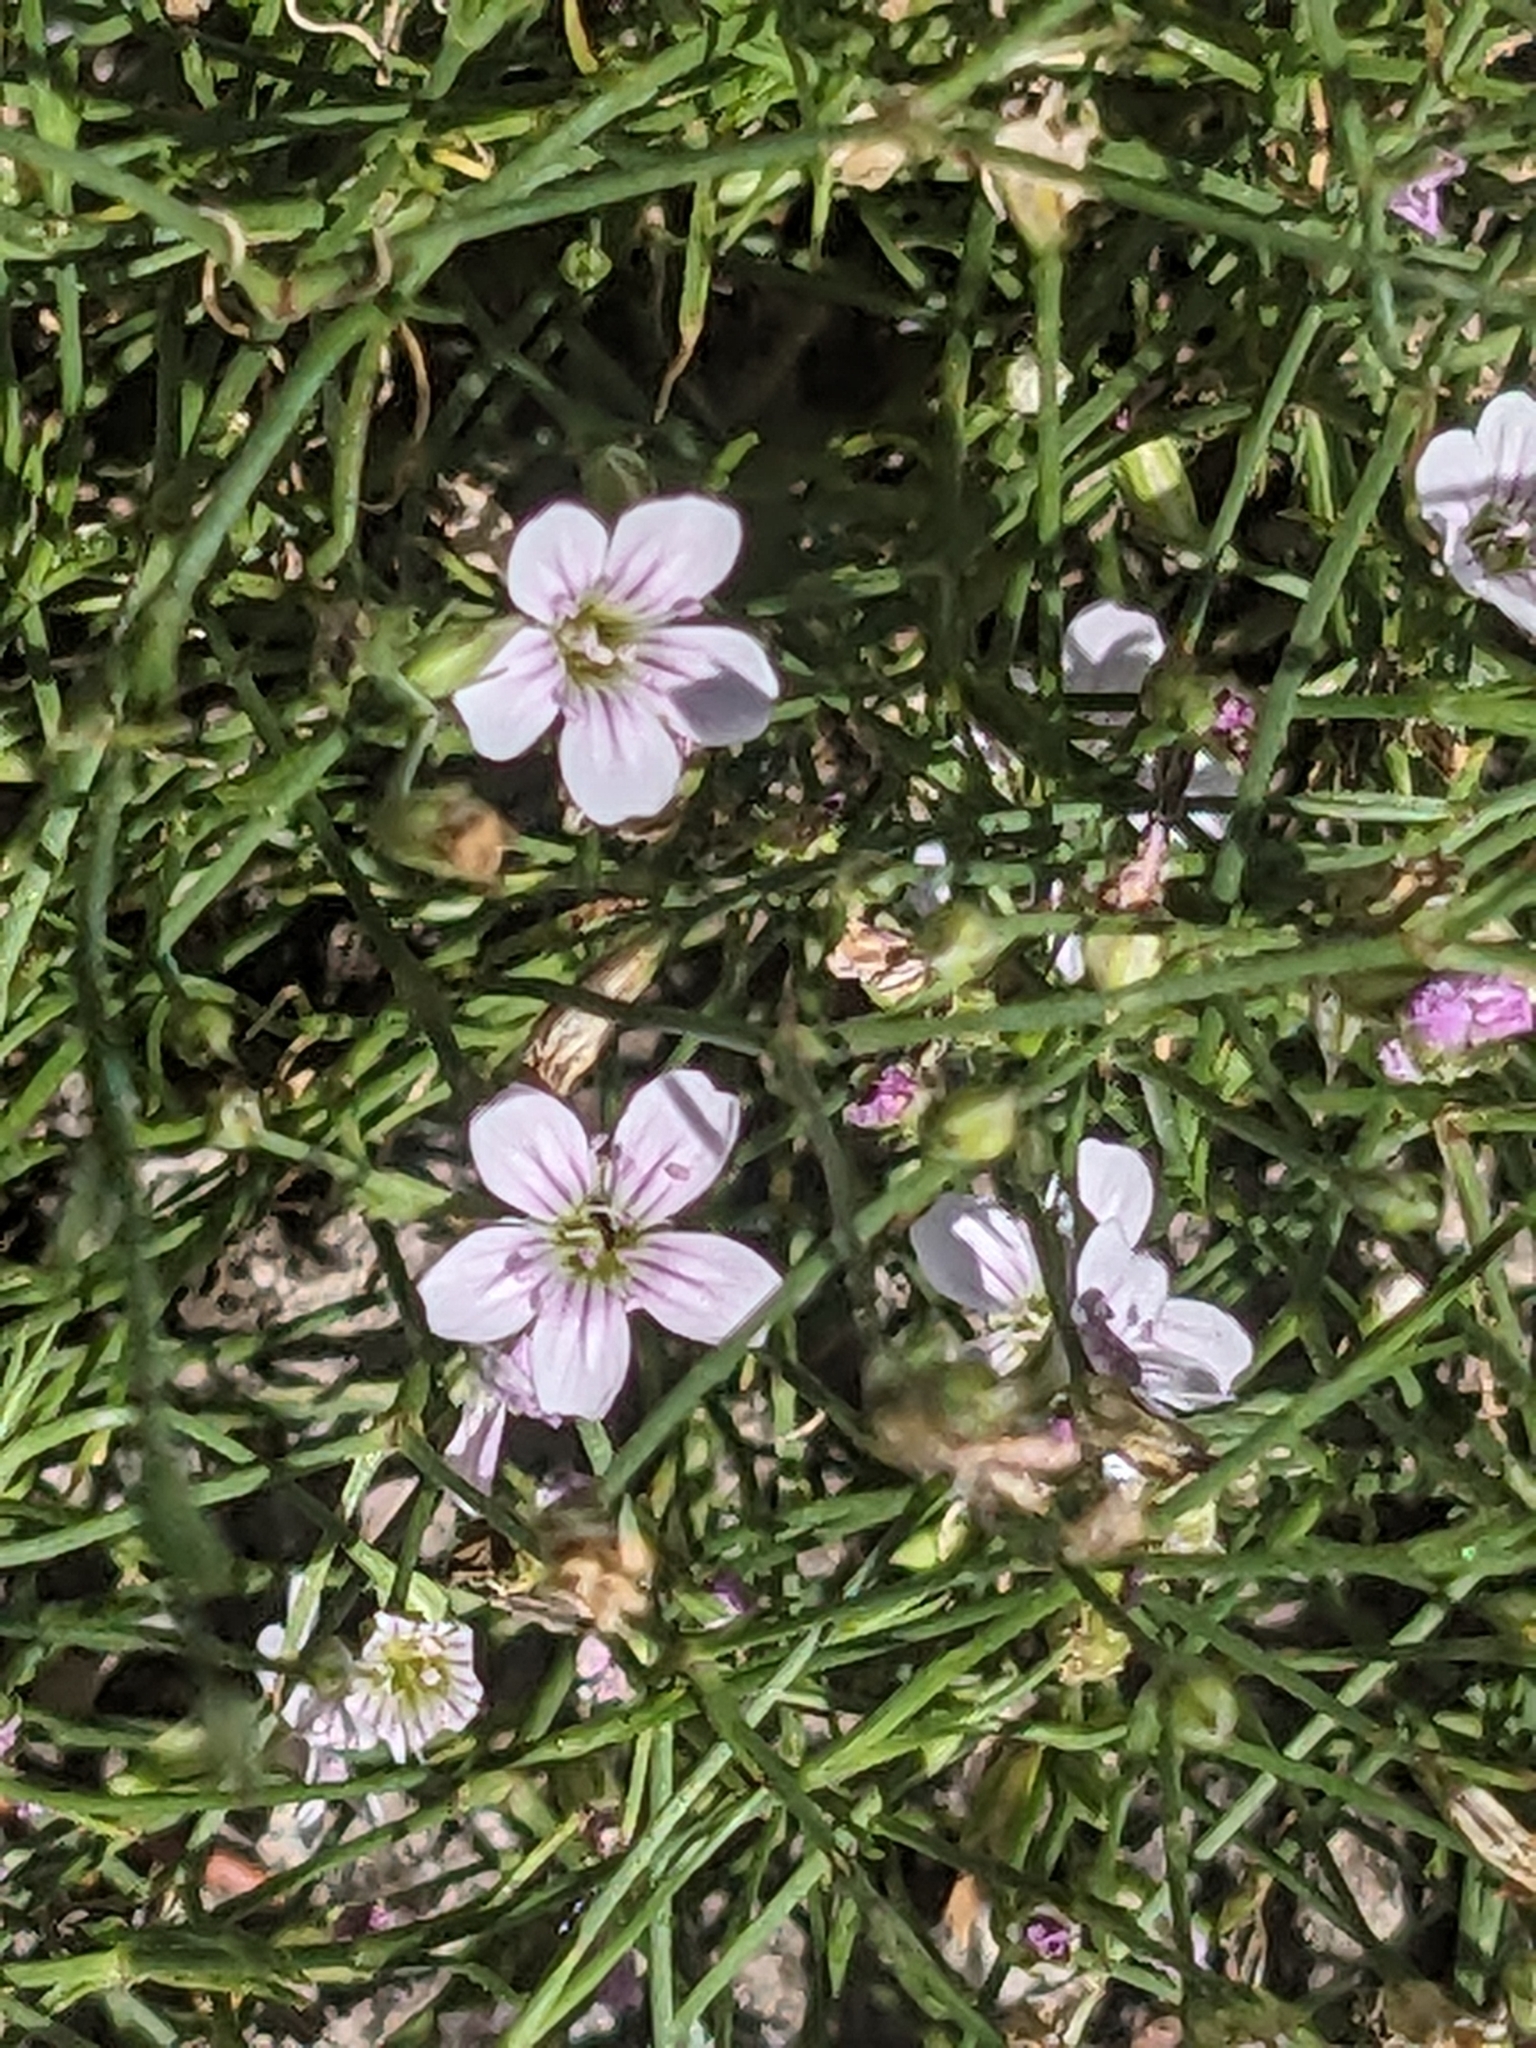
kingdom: Plantae
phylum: Tracheophyta
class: Magnoliopsida
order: Caryophyllales
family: Caryophyllaceae
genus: Petrorhagia
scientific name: Petrorhagia saxifraga
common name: Tunicflower
